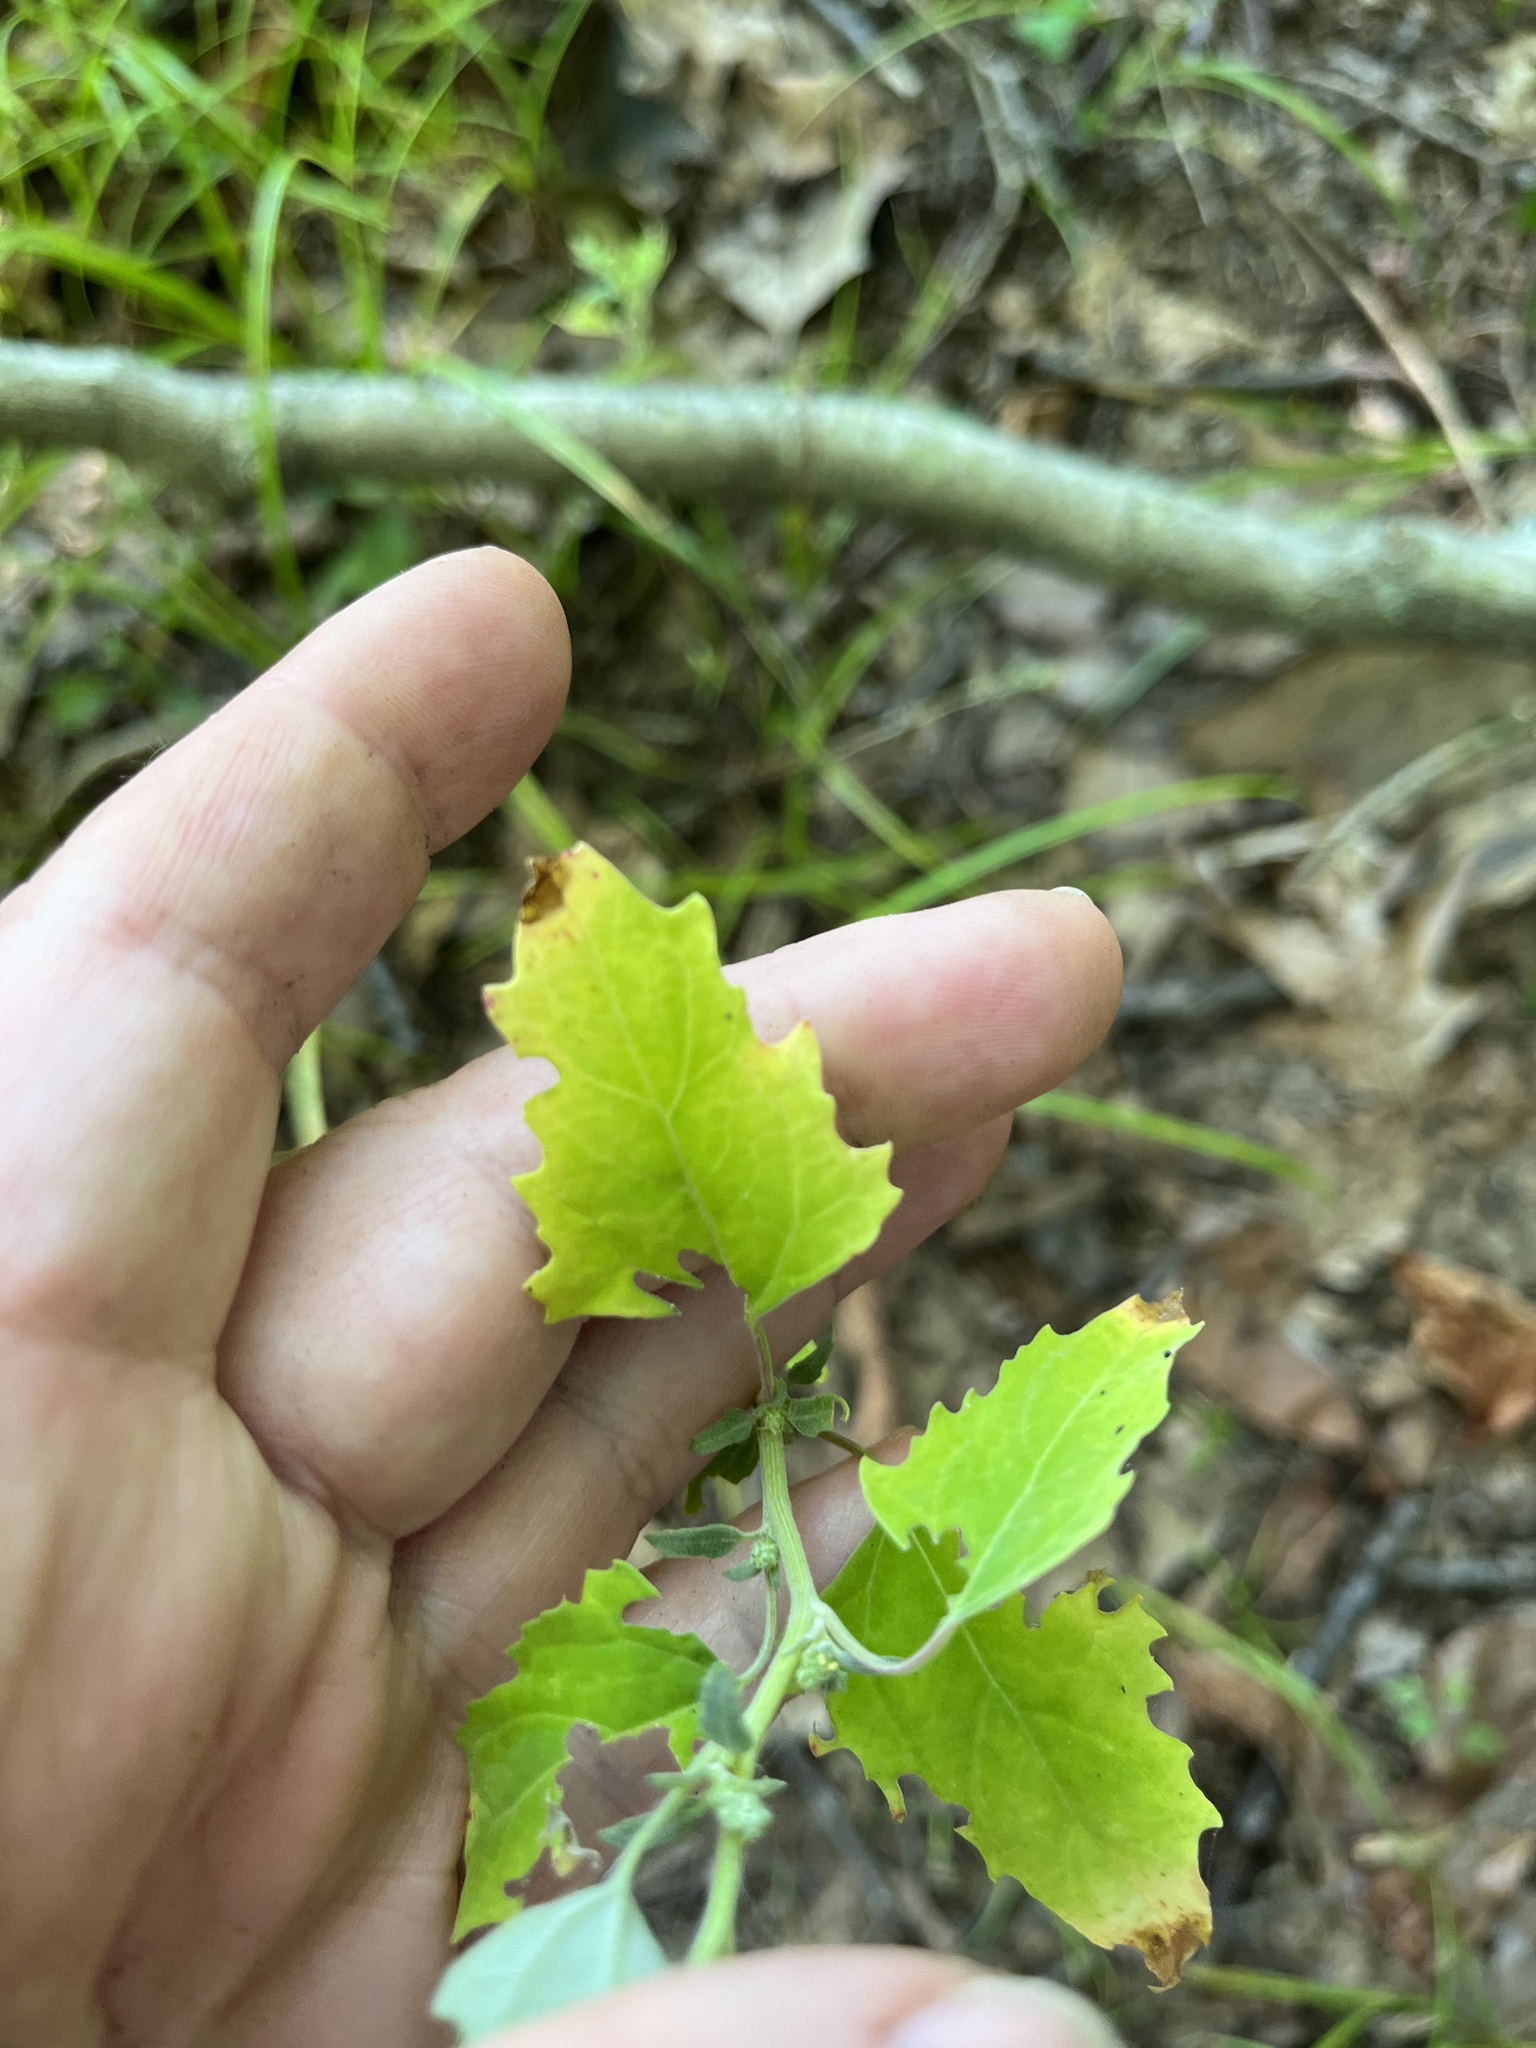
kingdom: Plantae
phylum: Tracheophyta
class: Magnoliopsida
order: Caryophyllales
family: Amaranthaceae
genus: Chenopodium
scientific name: Chenopodium album
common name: Fat-hen
